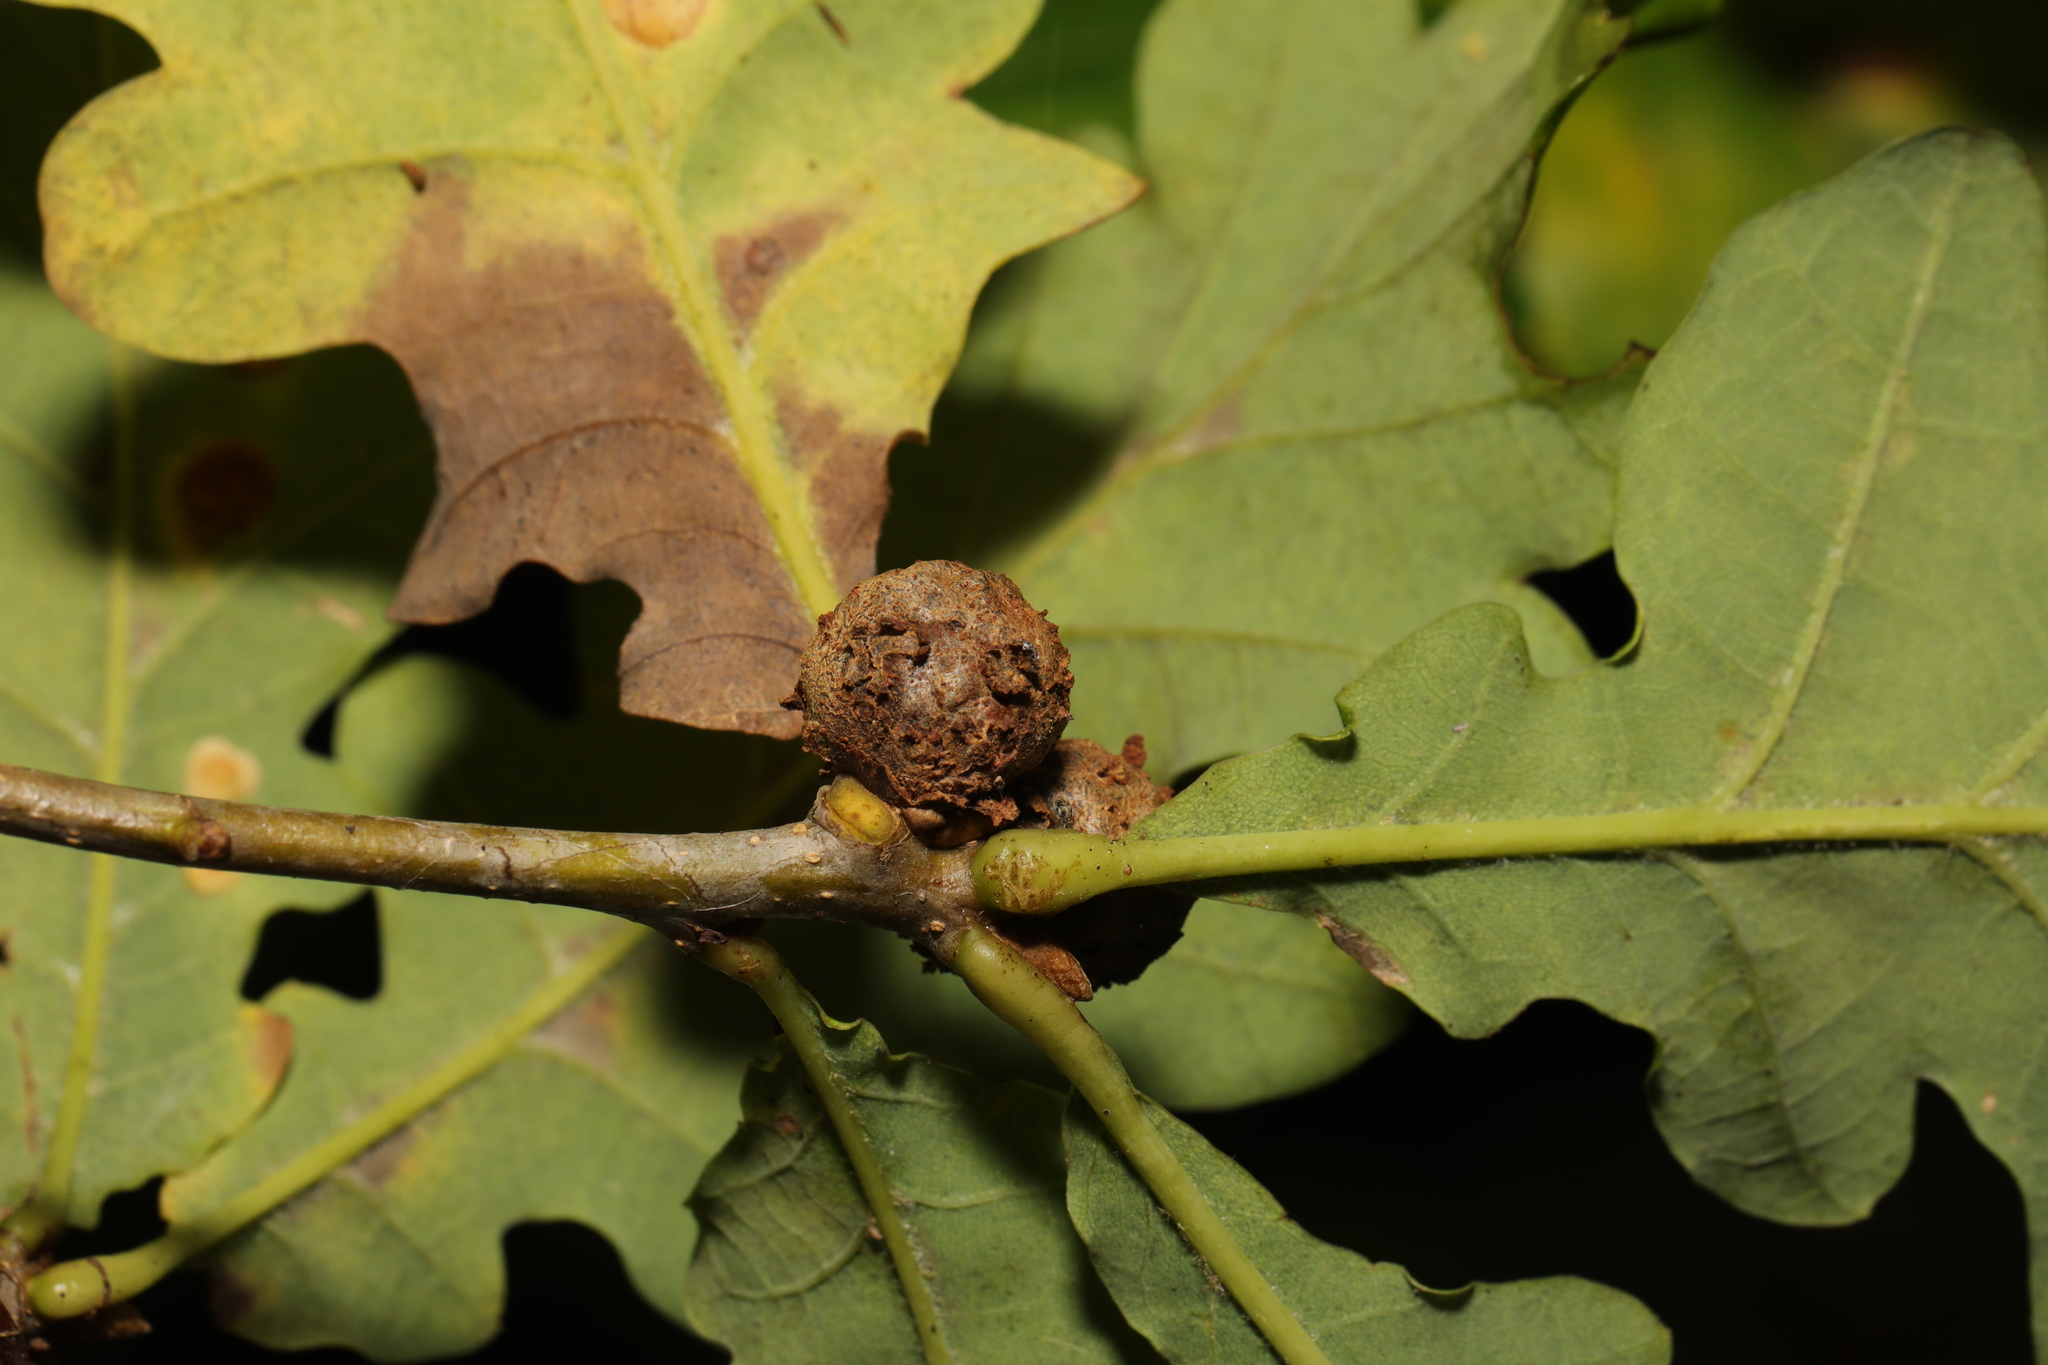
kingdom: Animalia
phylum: Arthropoda
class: Insecta
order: Hymenoptera
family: Cynipidae
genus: Andricus
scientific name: Andricus lignicolus
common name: Cola-nut gall
